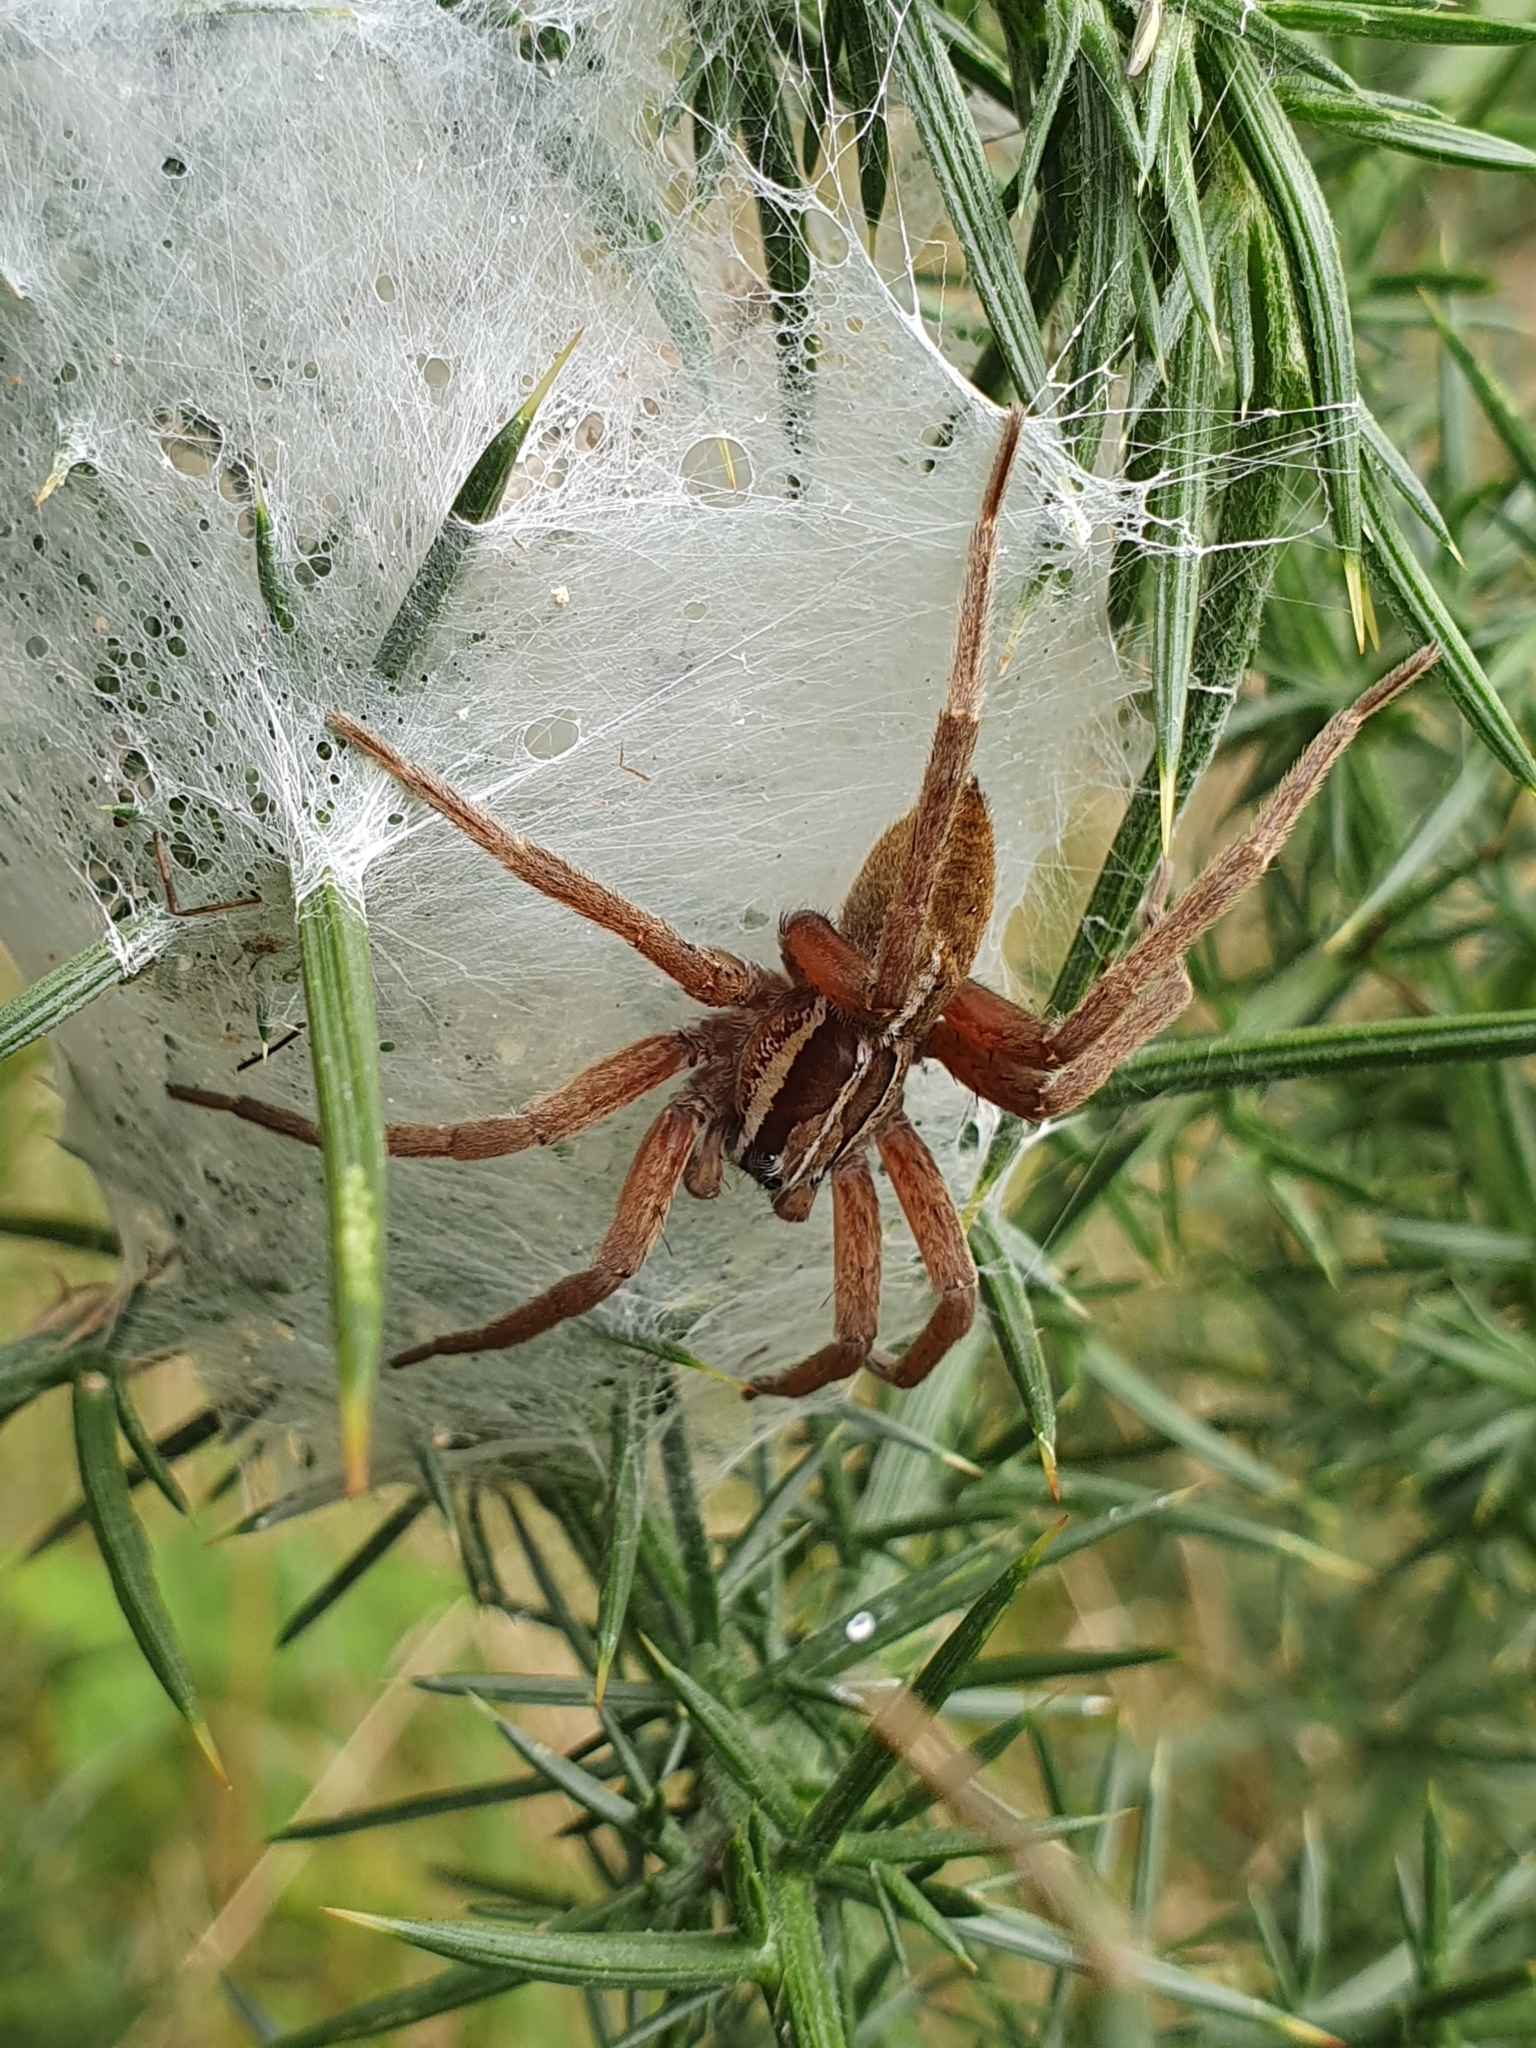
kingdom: Animalia
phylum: Arthropoda
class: Arachnida
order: Araneae
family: Pisauridae
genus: Dolomedes
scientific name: Dolomedes minor
